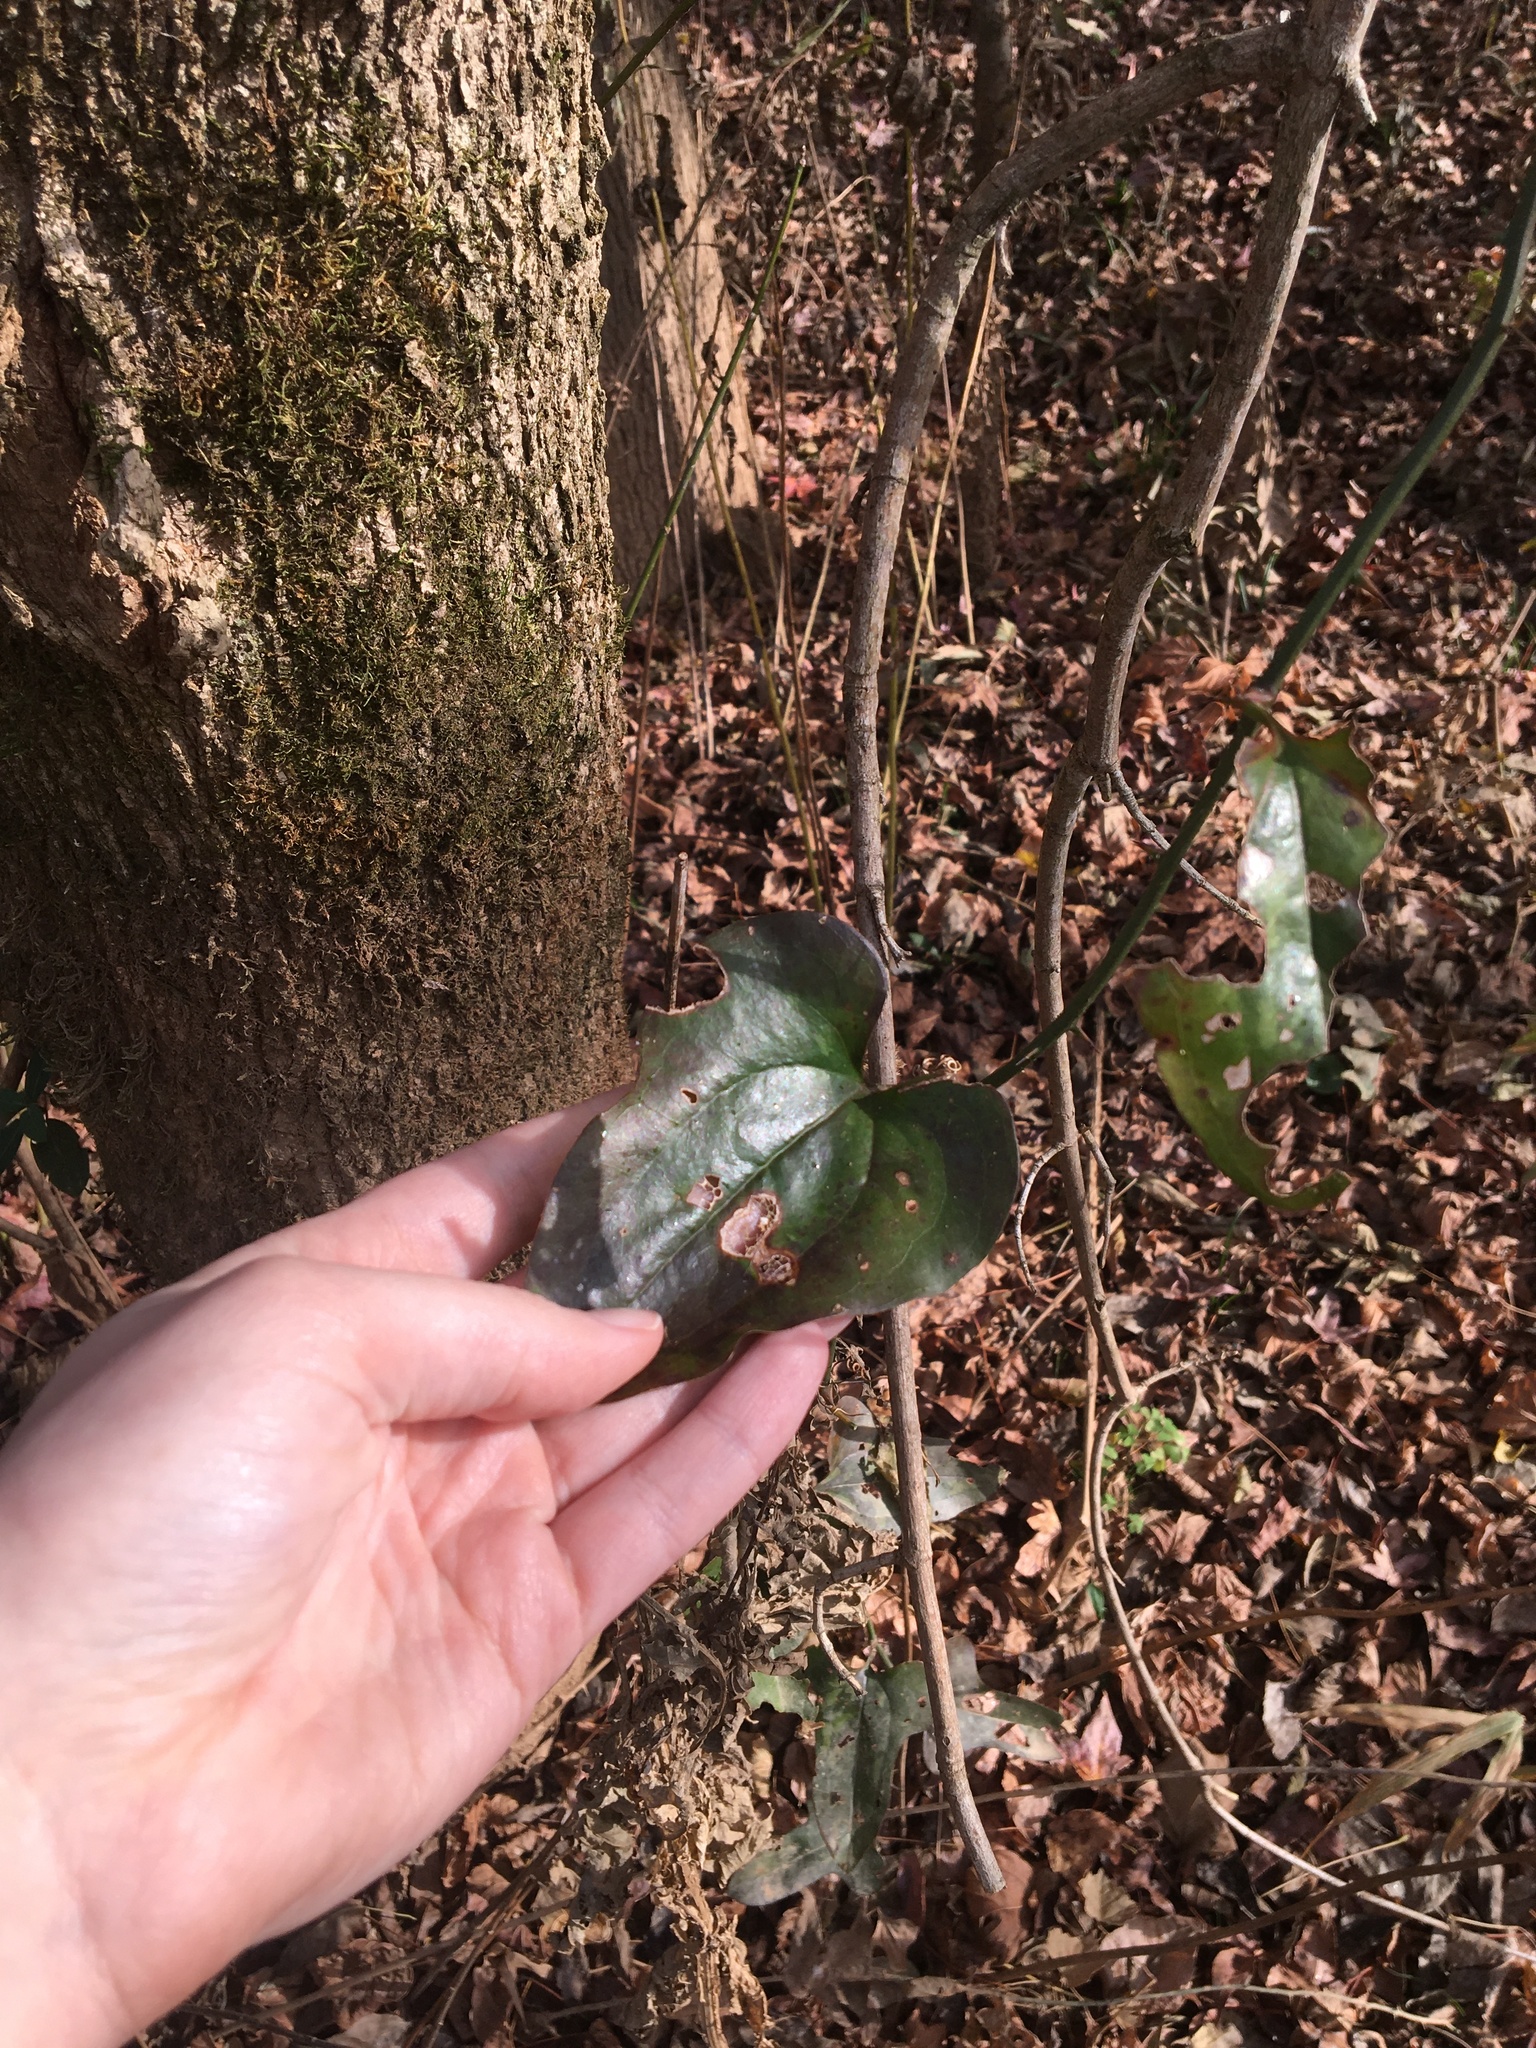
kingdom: Plantae
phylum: Tracheophyta
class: Liliopsida
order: Liliales
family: Smilacaceae
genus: Smilax
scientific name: Smilax tamnoides
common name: Hellfetter
